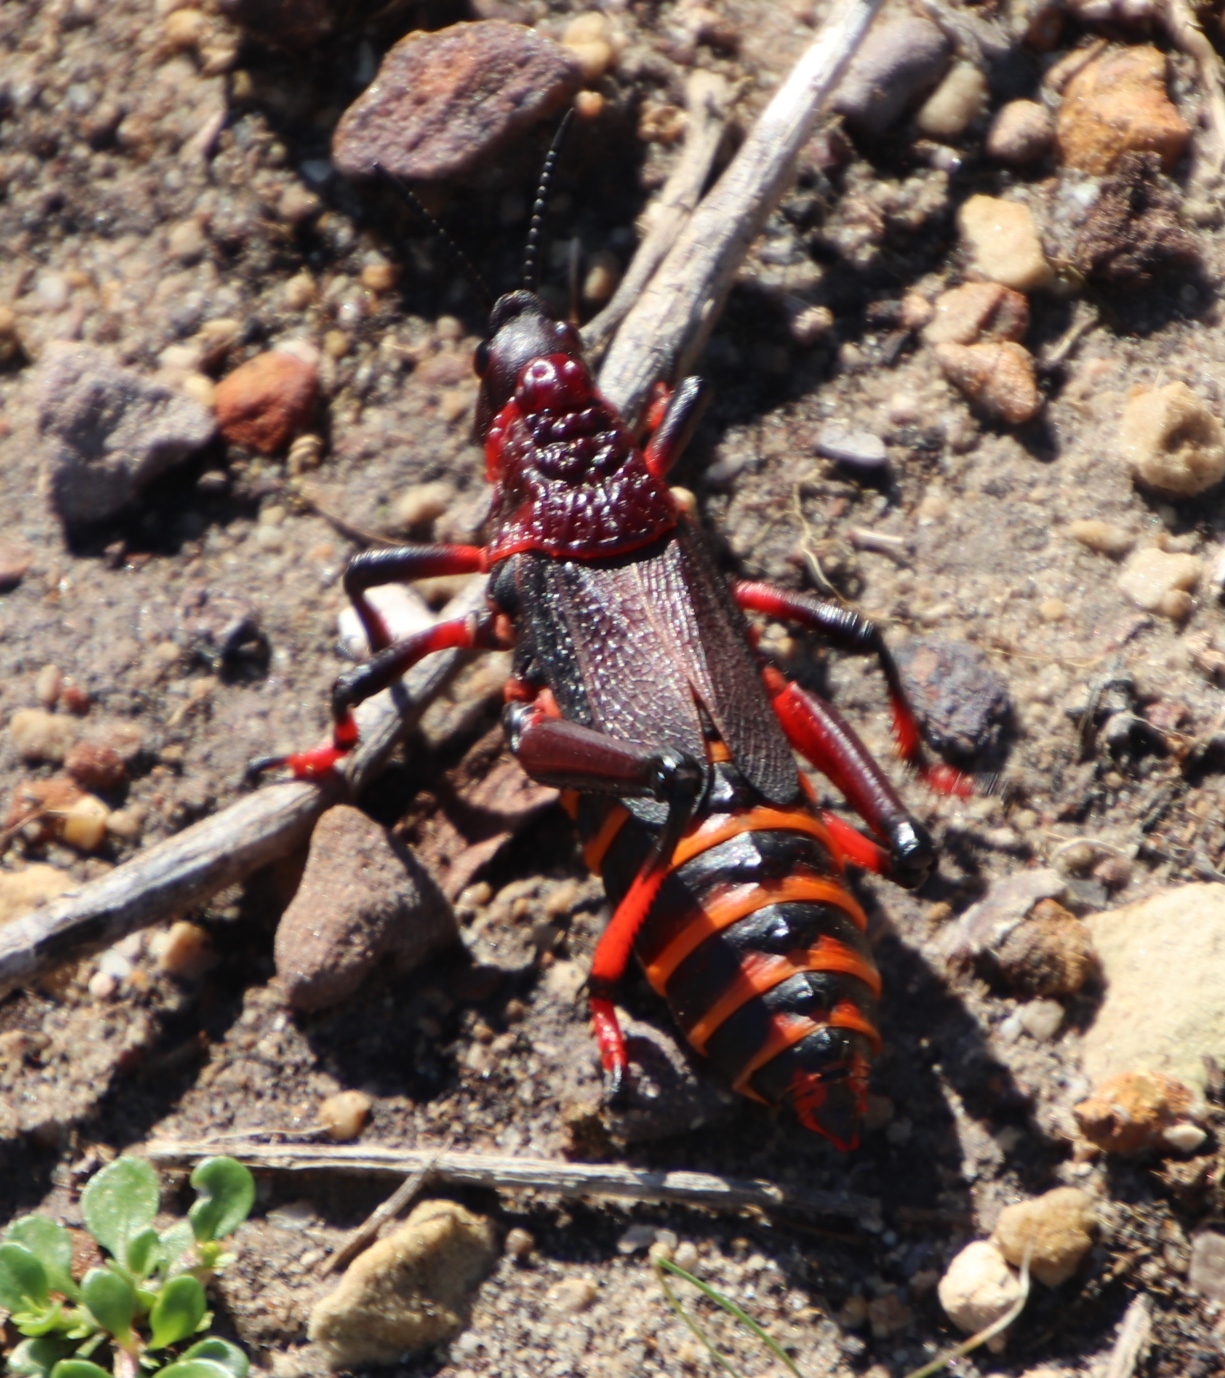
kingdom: Animalia
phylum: Arthropoda
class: Insecta
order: Orthoptera
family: Pyrgomorphidae
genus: Dictyophorus
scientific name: Dictyophorus spumans
